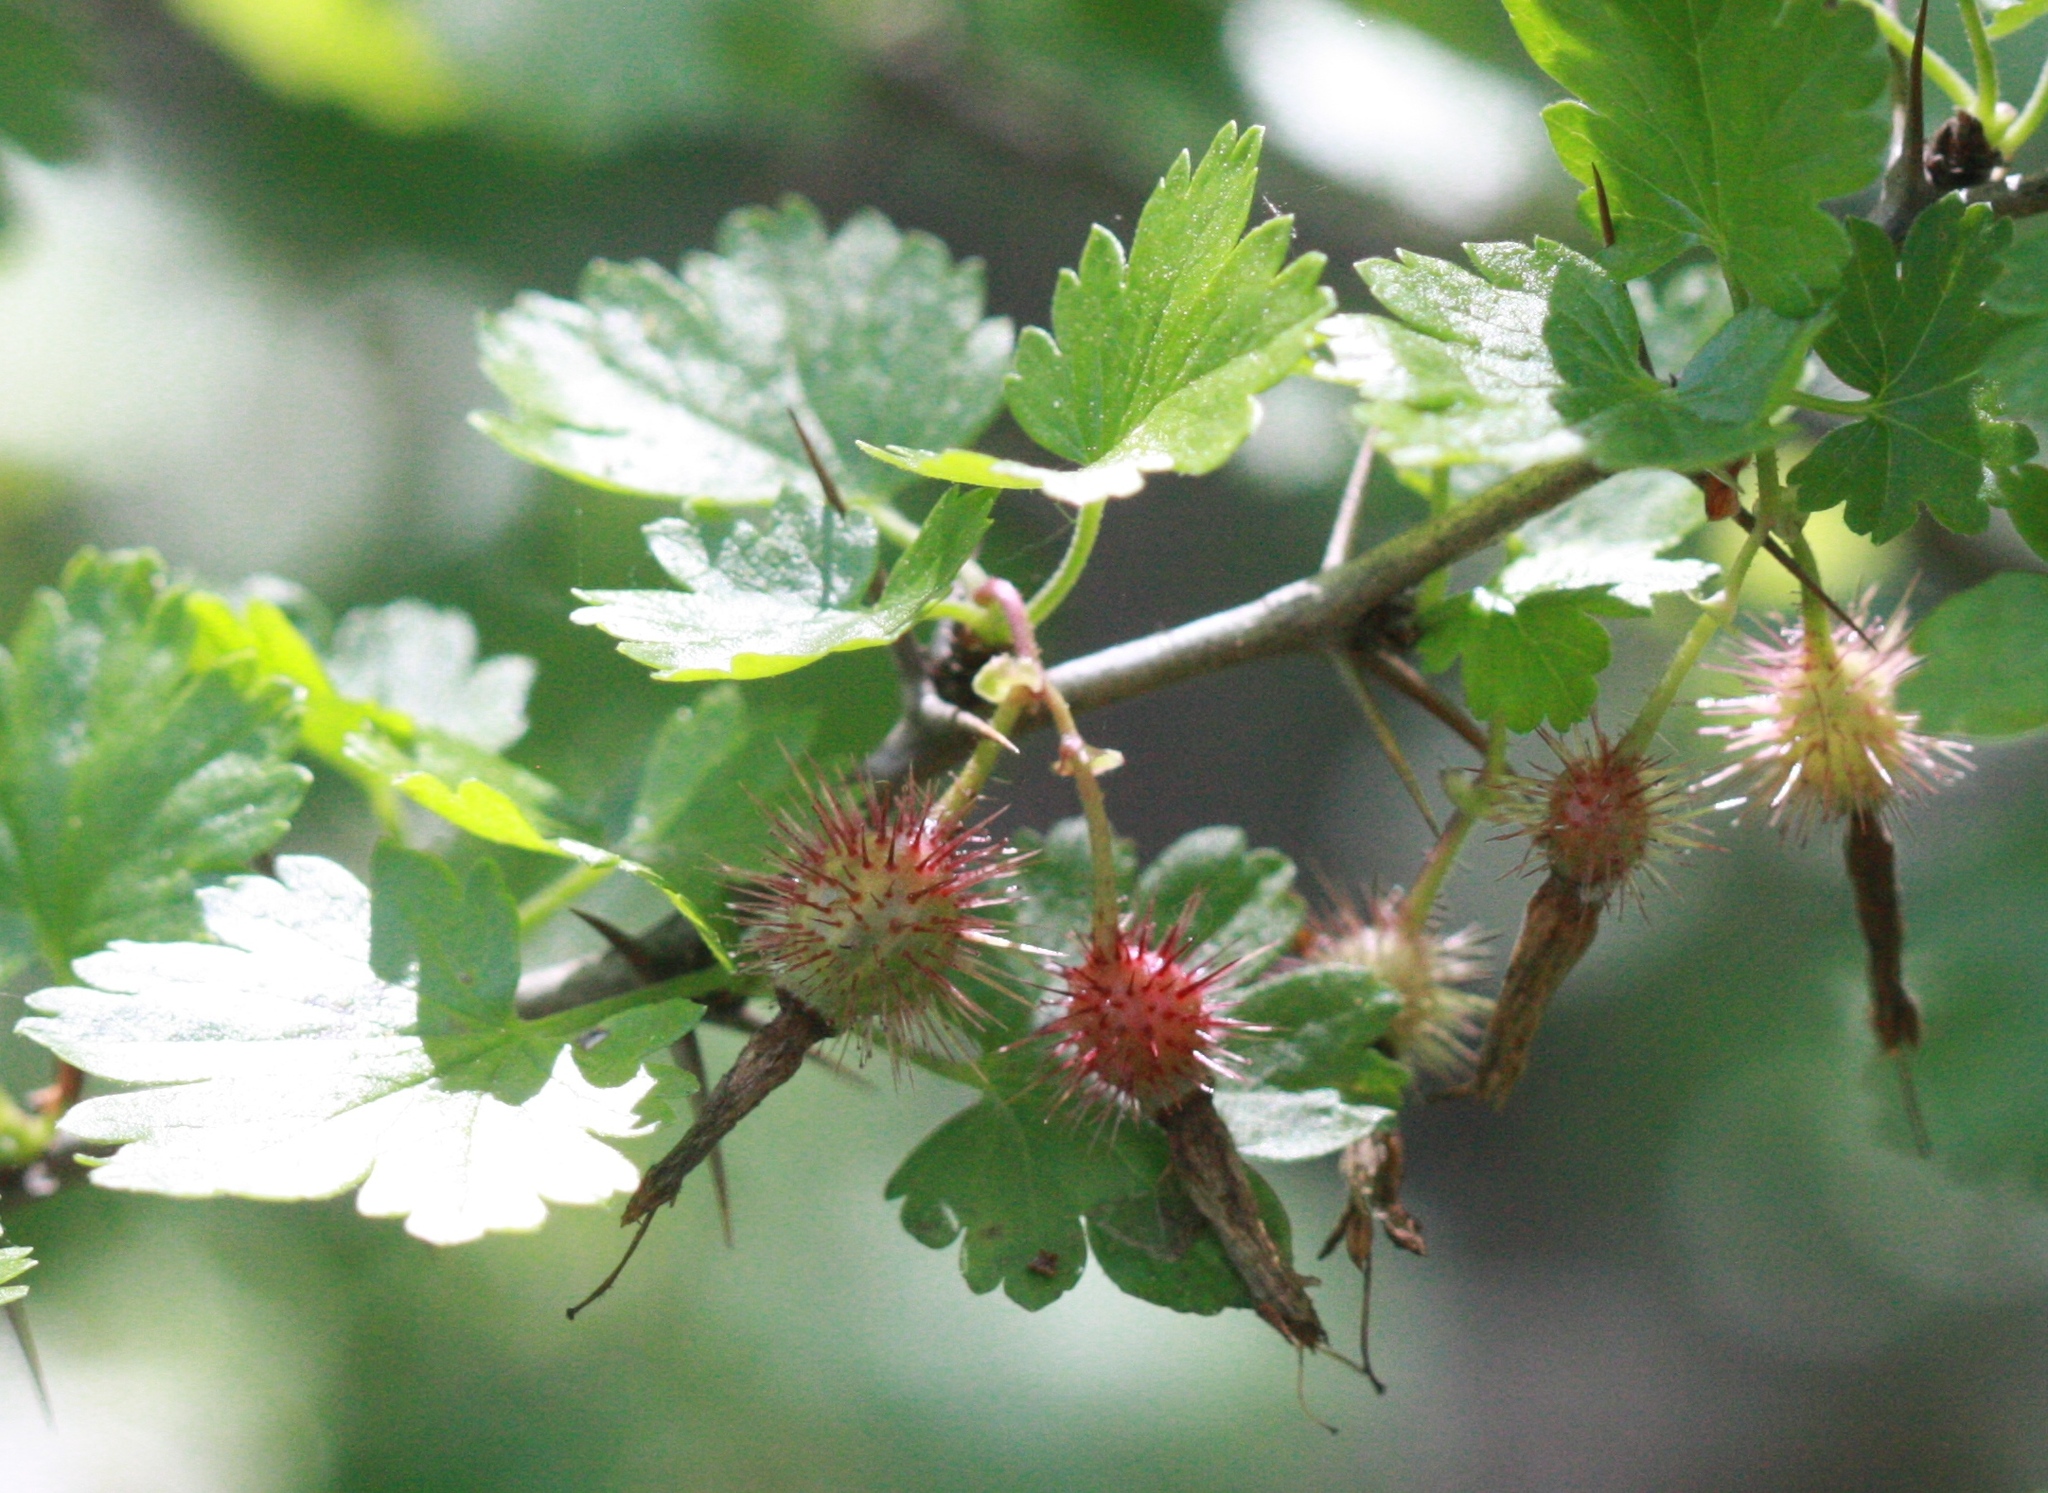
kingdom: Plantae
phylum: Tracheophyta
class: Magnoliopsida
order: Saxifragales
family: Grossulariaceae
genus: Ribes
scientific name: Ribes californicum
